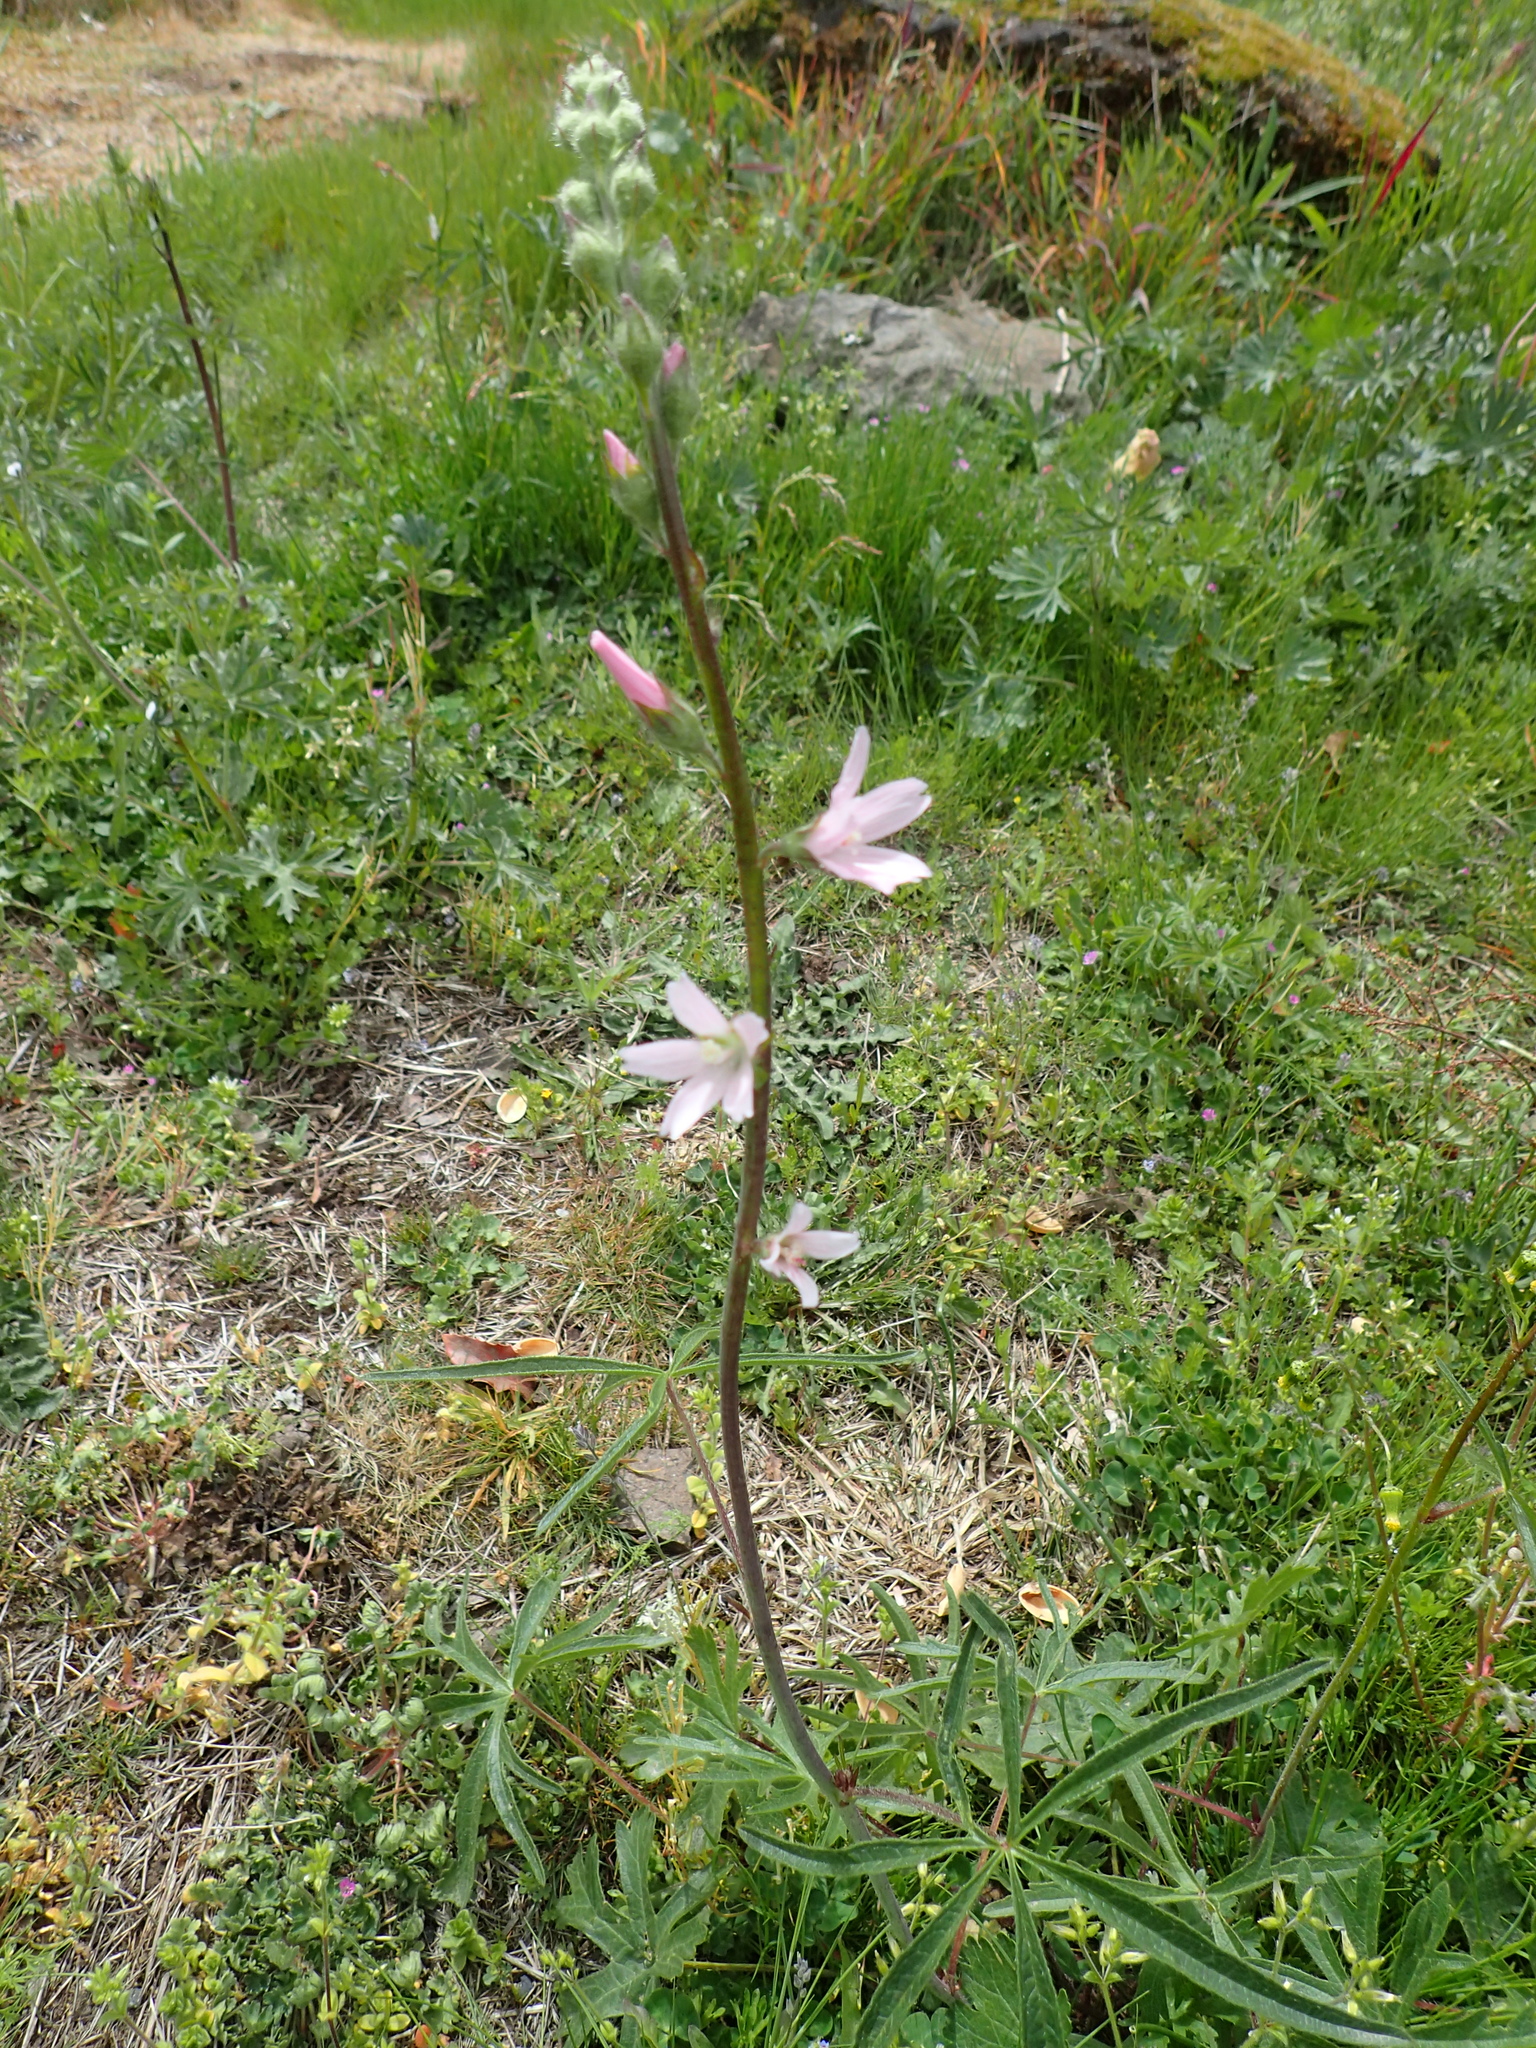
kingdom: Plantae
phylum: Tracheophyta
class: Magnoliopsida
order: Malvales
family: Malvaceae
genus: Sidalcea
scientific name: Sidalcea campestris
